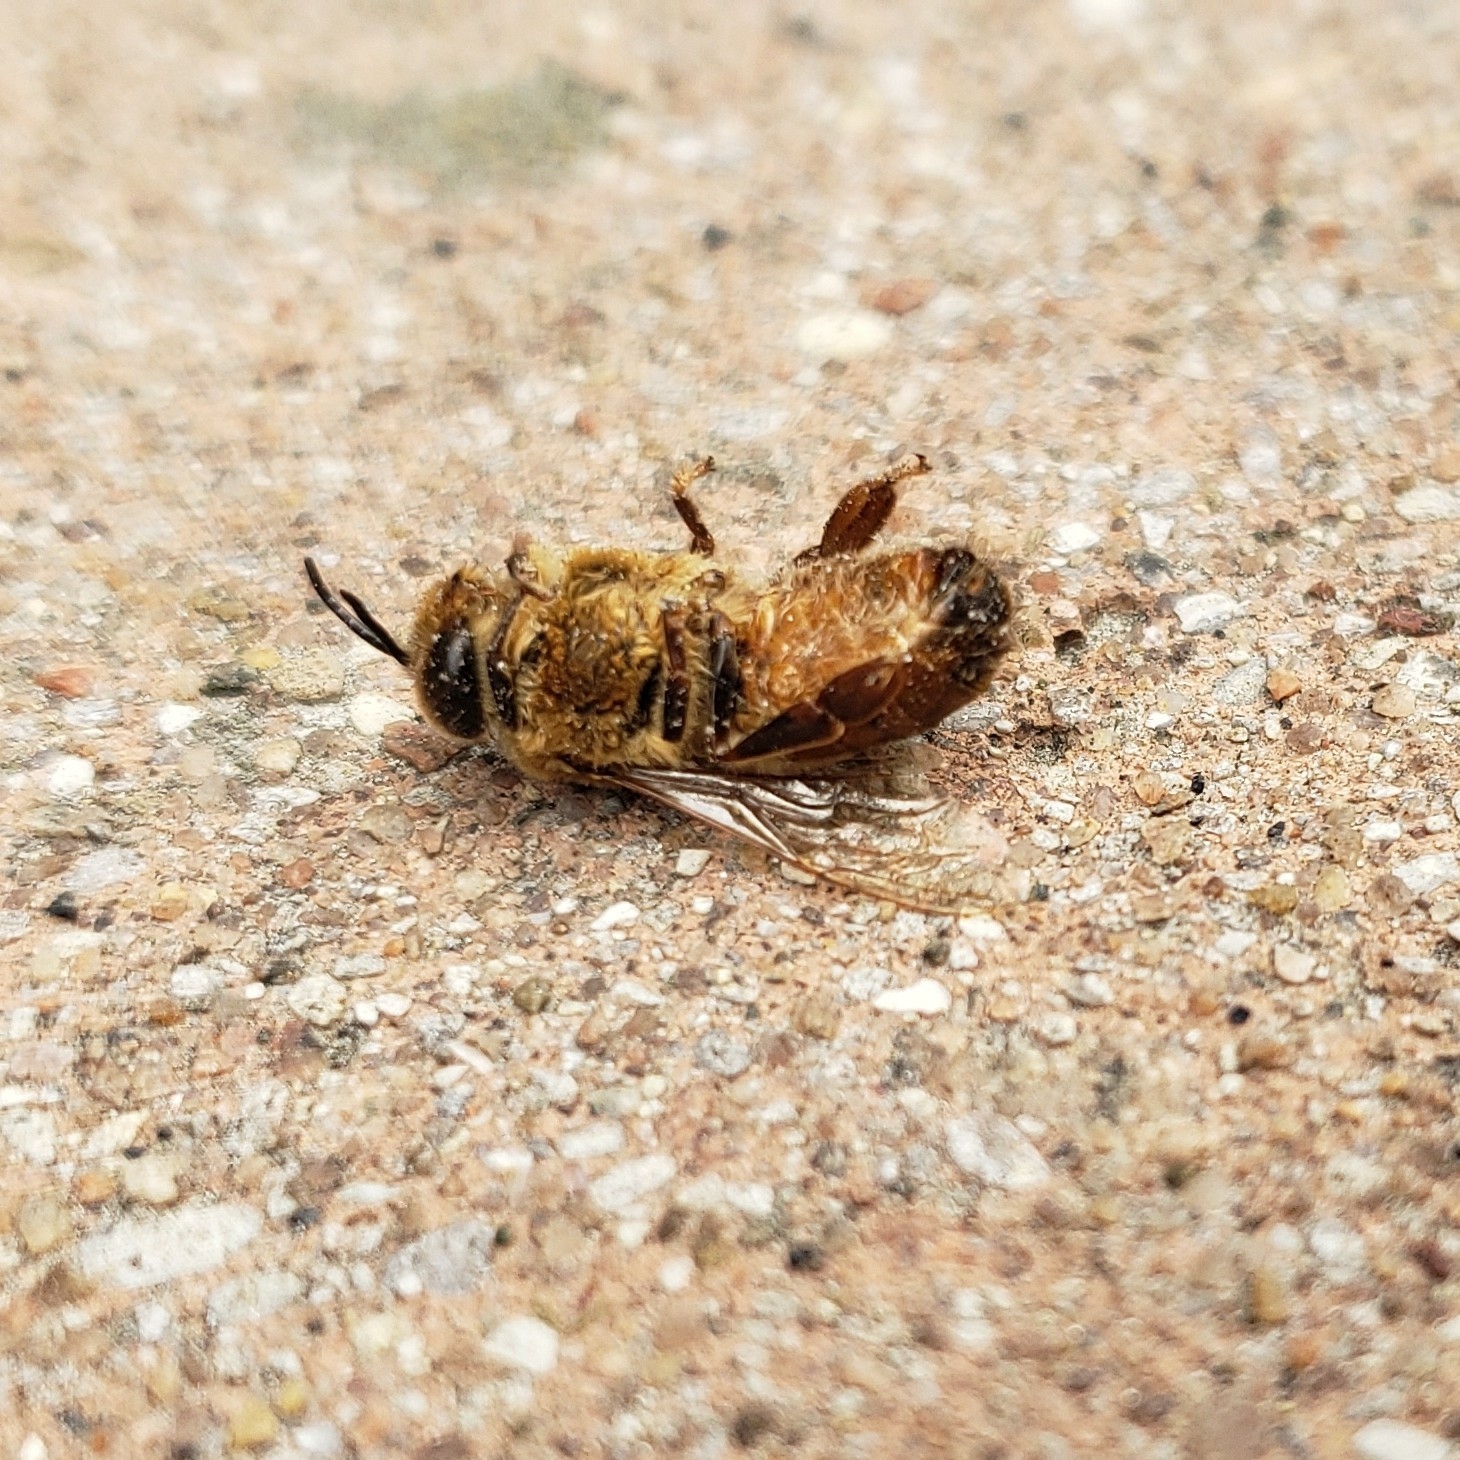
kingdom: Animalia
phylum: Arthropoda
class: Insecta
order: Hymenoptera
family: Apidae
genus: Apis
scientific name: Apis mellifera
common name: Honey bee
